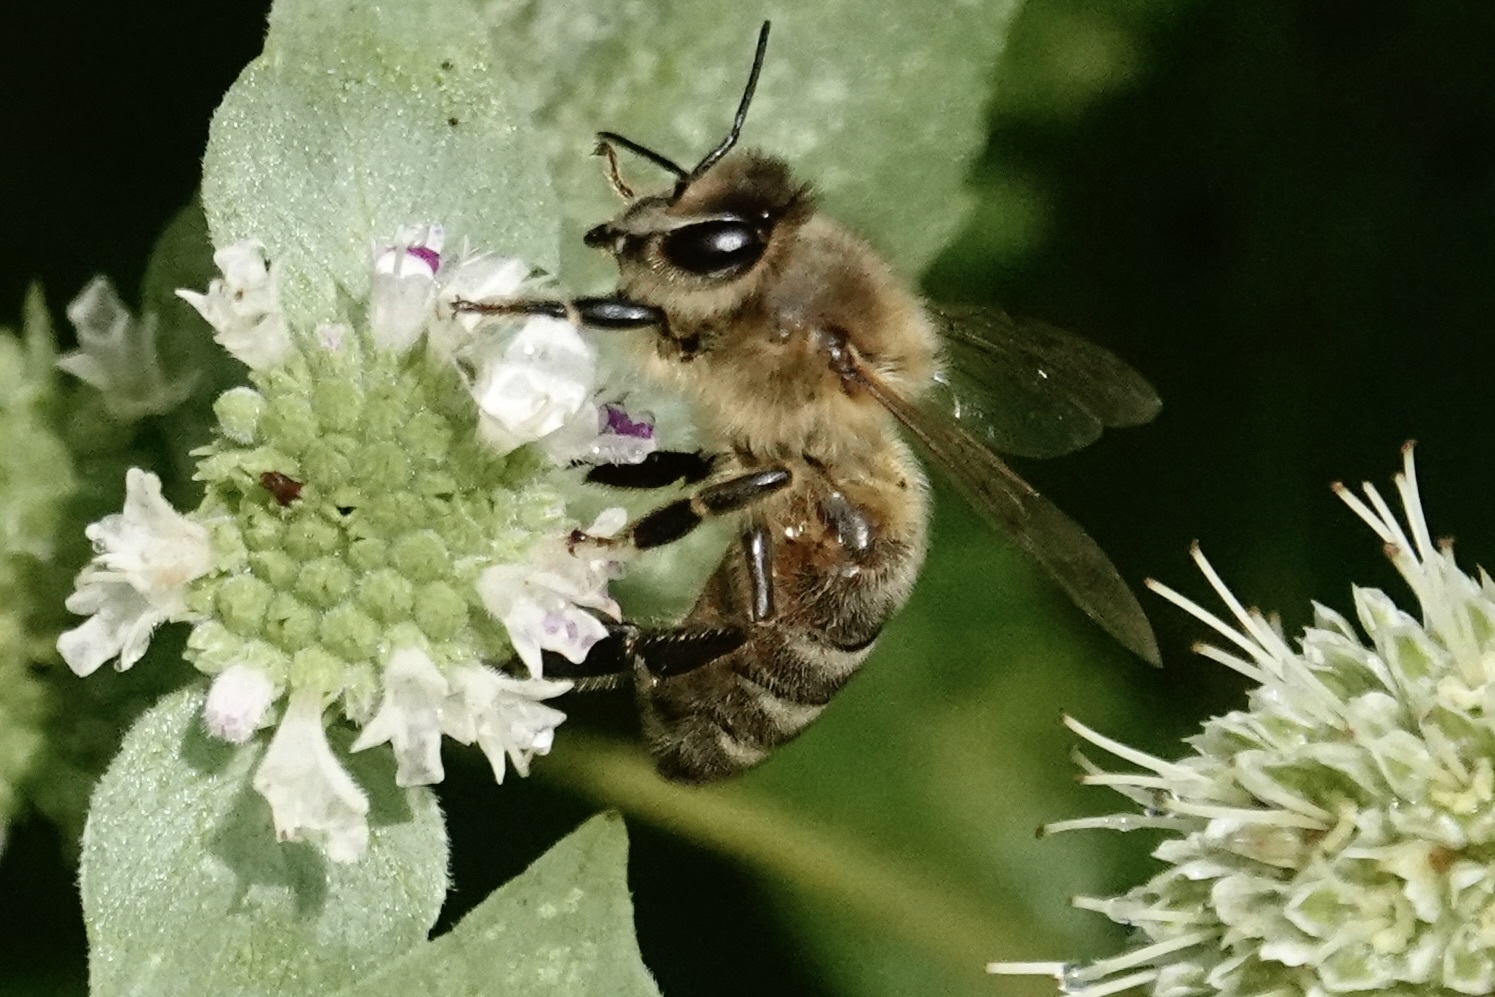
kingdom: Animalia
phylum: Arthropoda
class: Insecta
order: Hymenoptera
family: Apidae
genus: Apis
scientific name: Apis mellifera
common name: Honey bee
